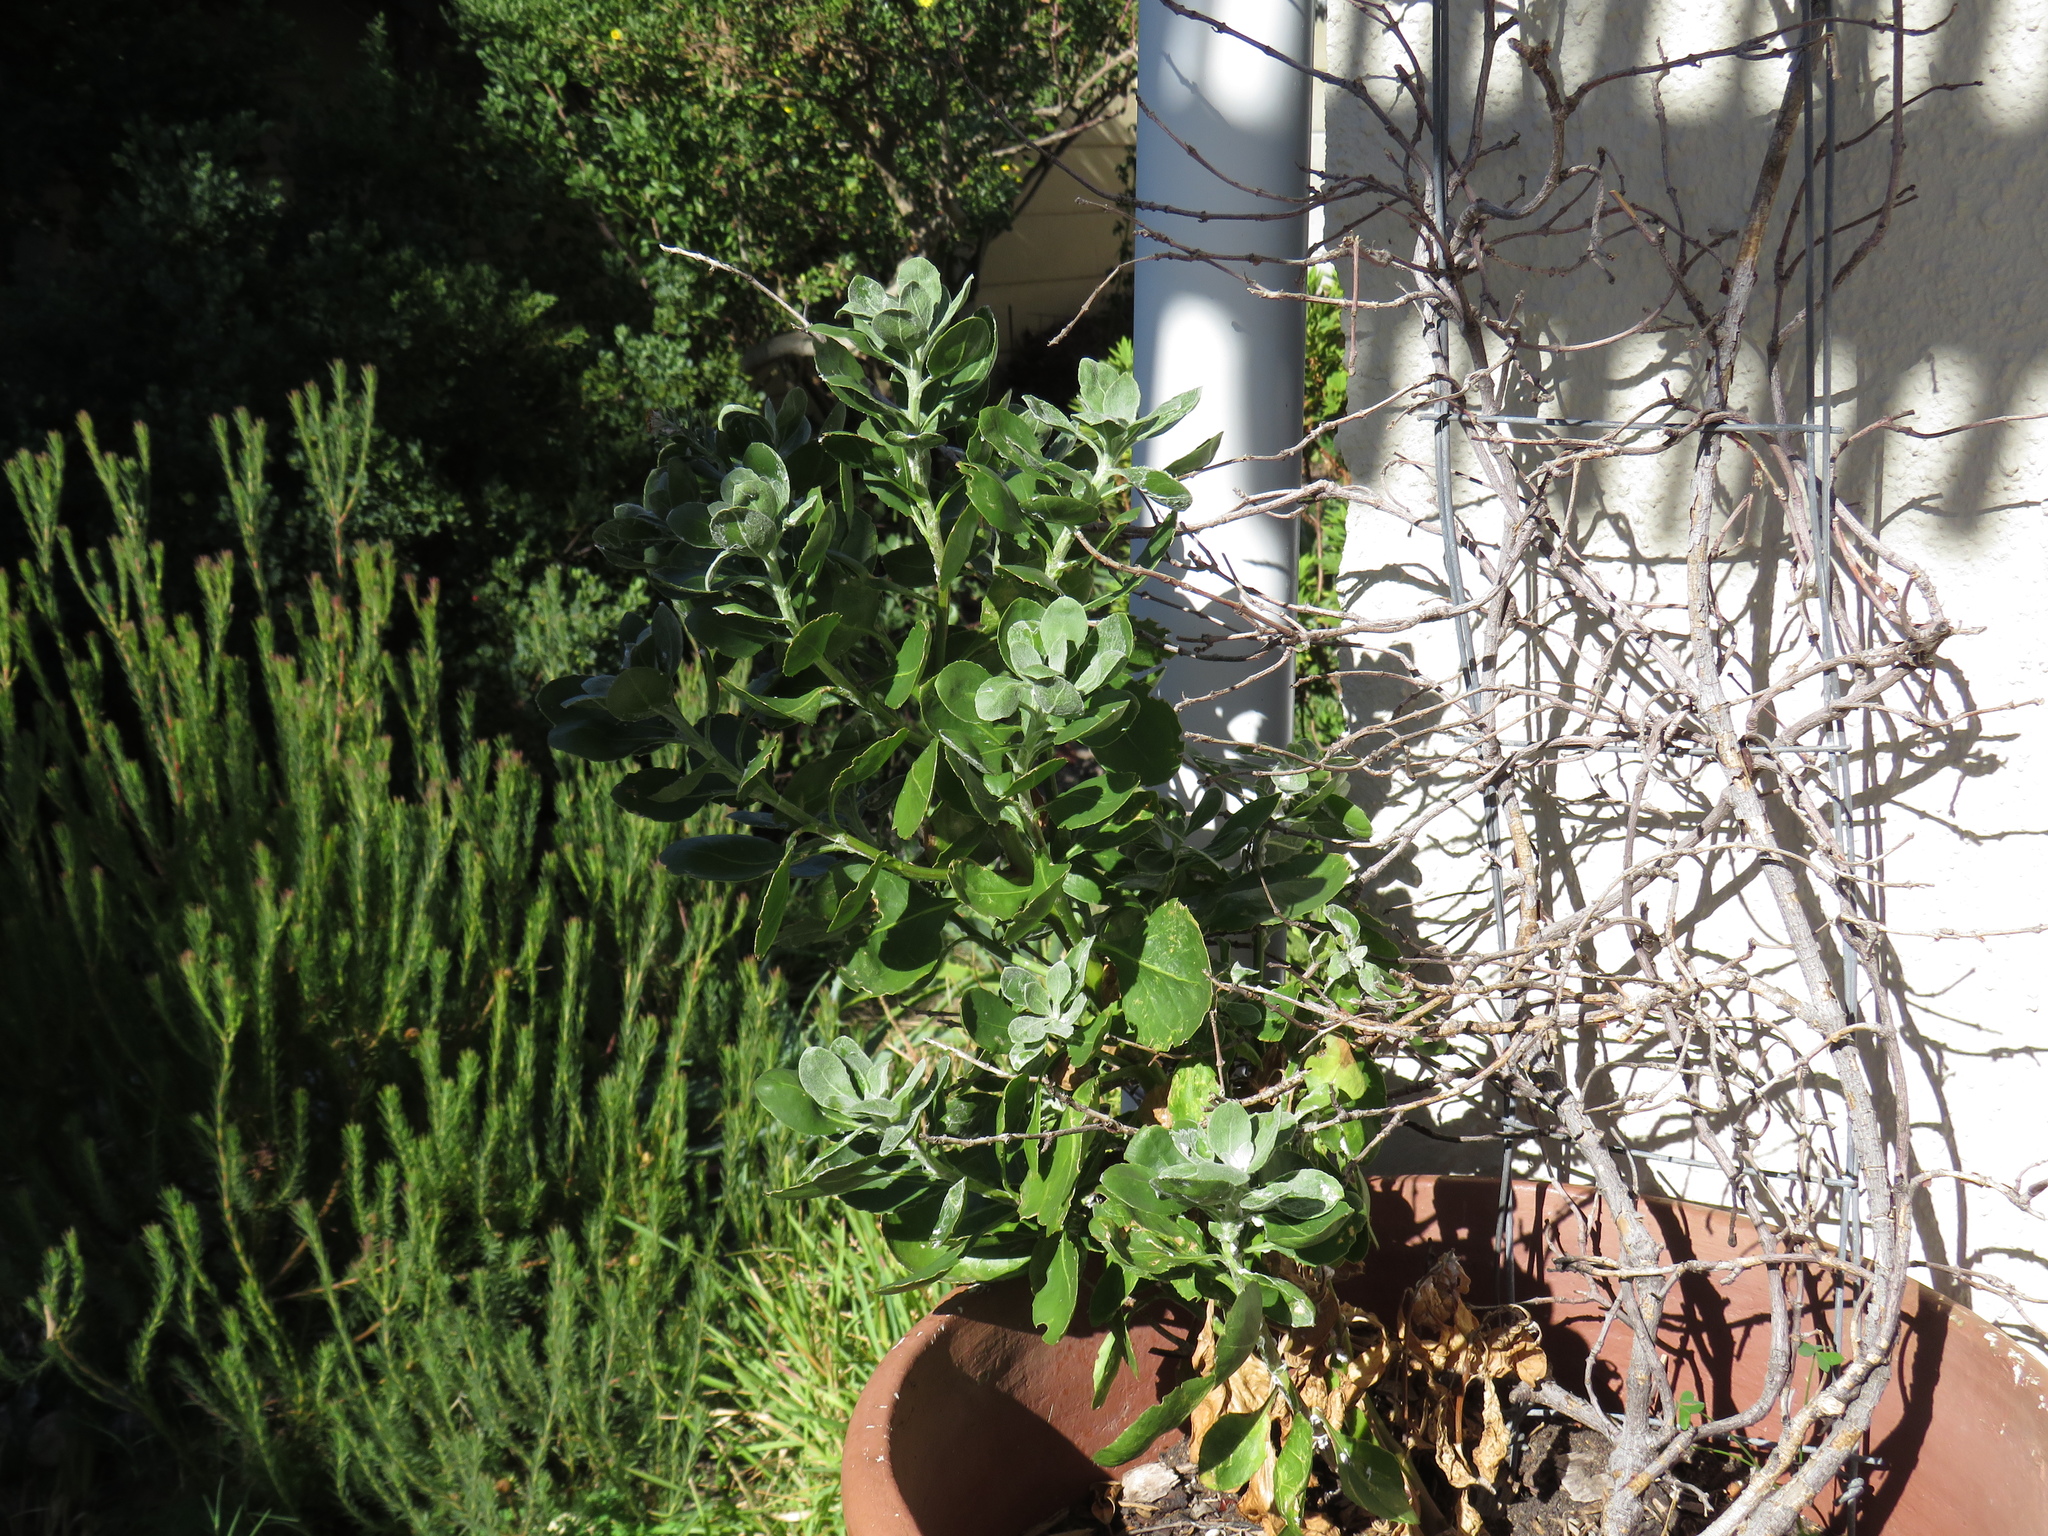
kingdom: Plantae
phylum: Tracheophyta
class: Magnoliopsida
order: Asterales
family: Asteraceae
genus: Osteospermum
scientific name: Osteospermum moniliferum
